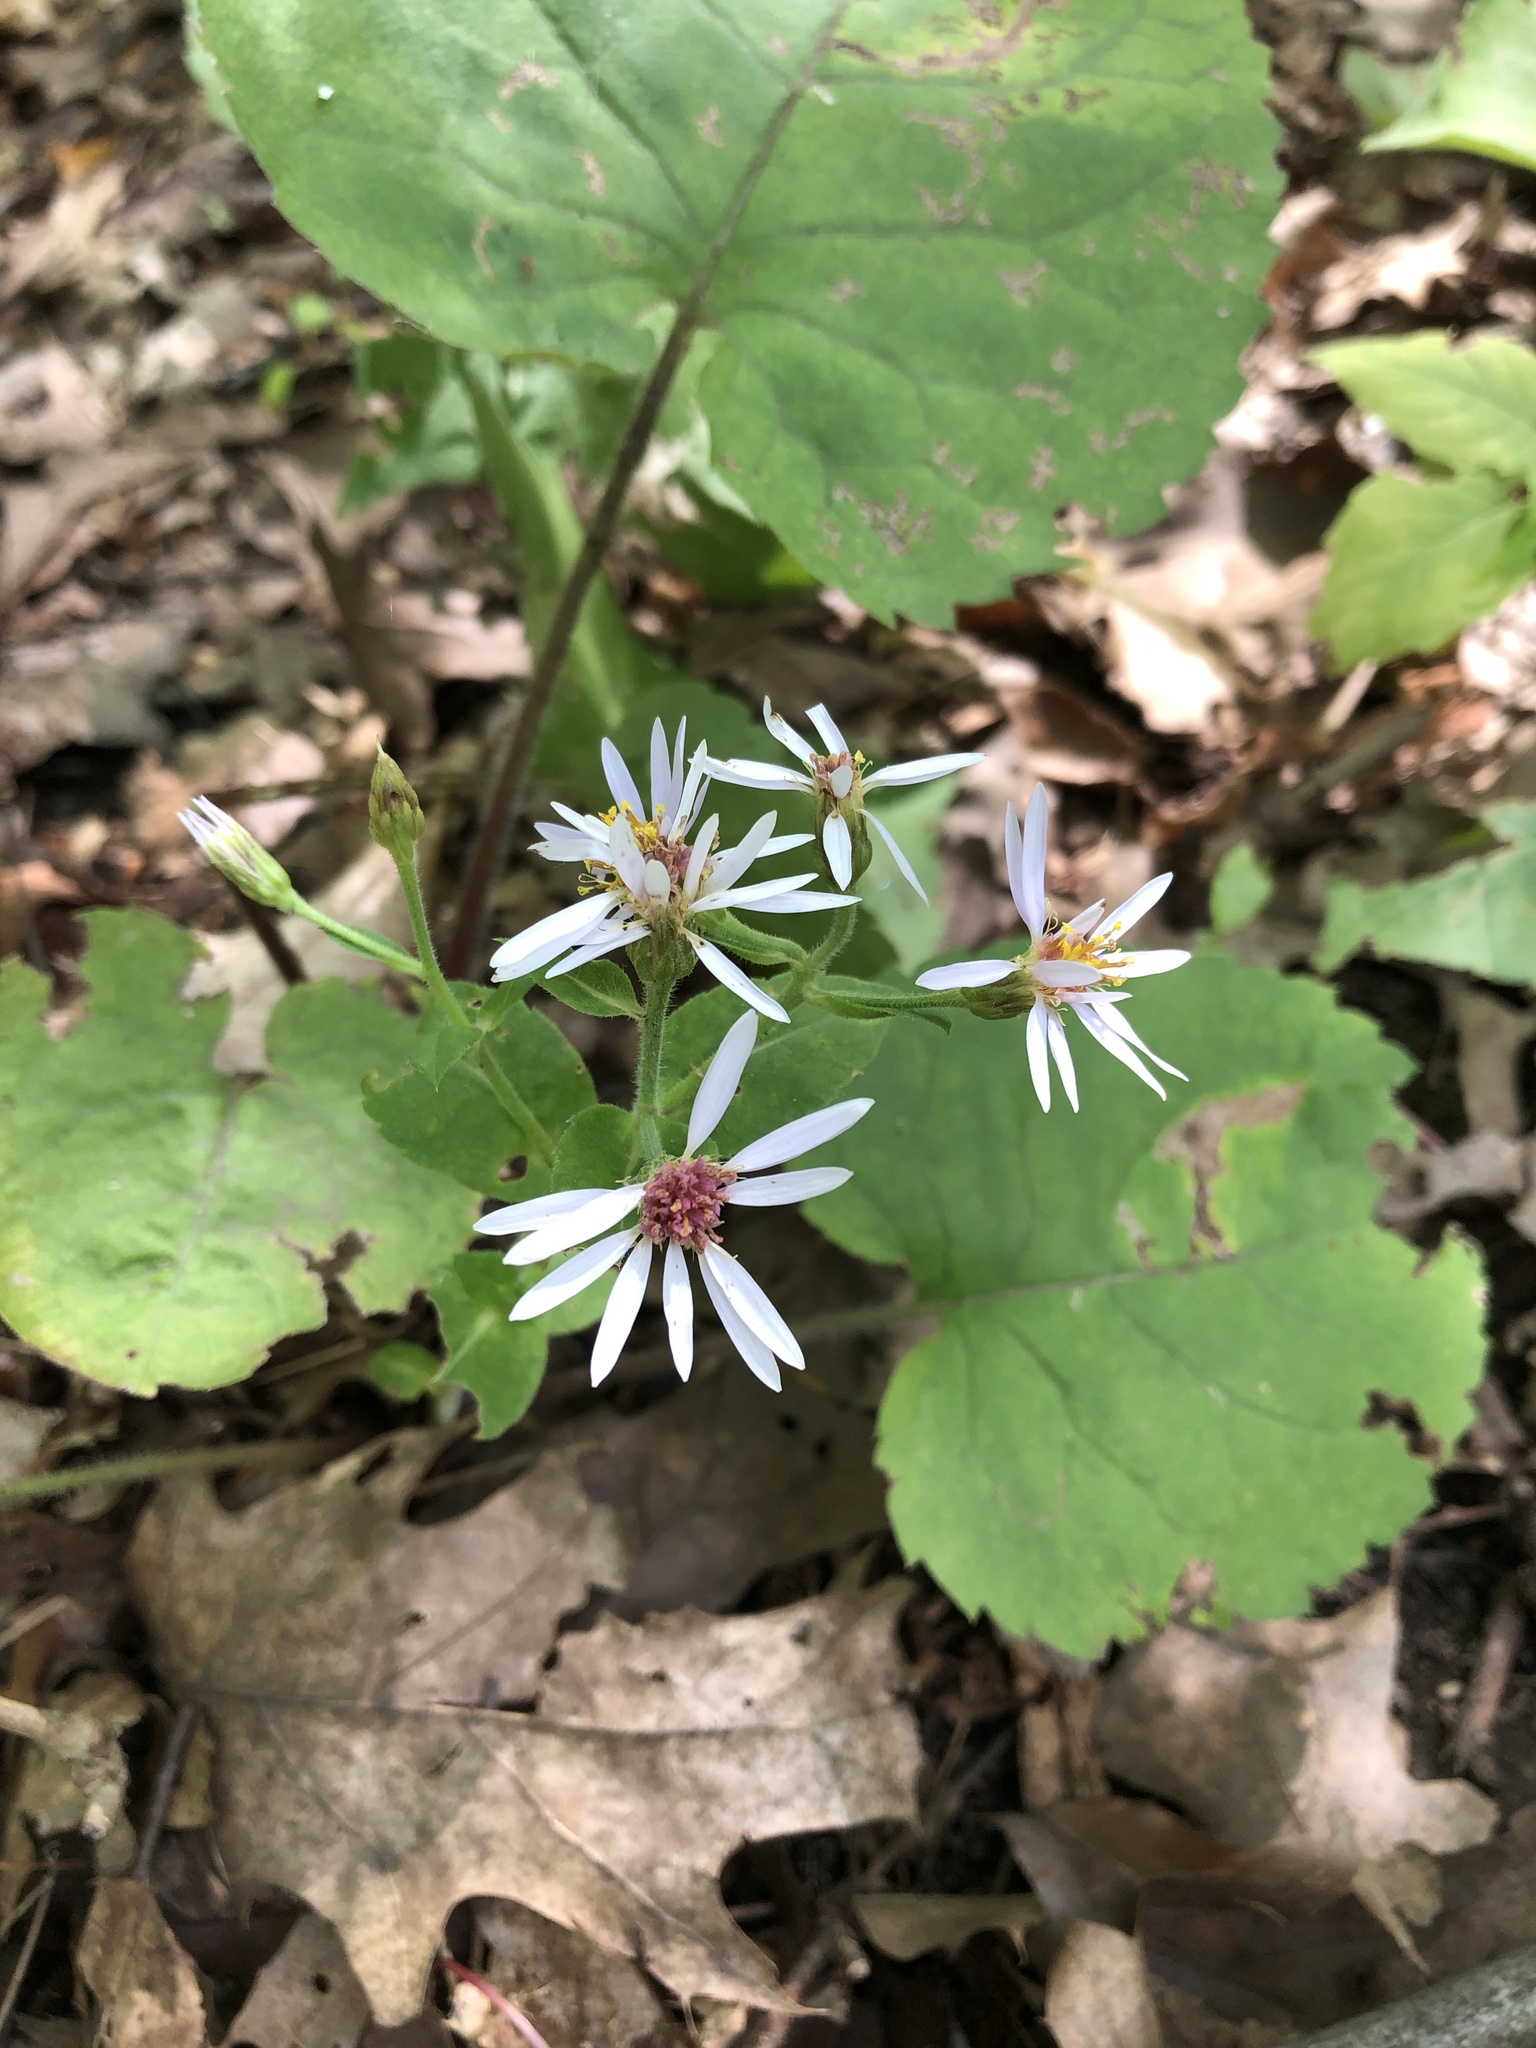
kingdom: Plantae
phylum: Tracheophyta
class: Magnoliopsida
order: Asterales
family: Asteraceae
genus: Eurybia
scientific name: Eurybia macrophylla
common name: Big-leaved aster
